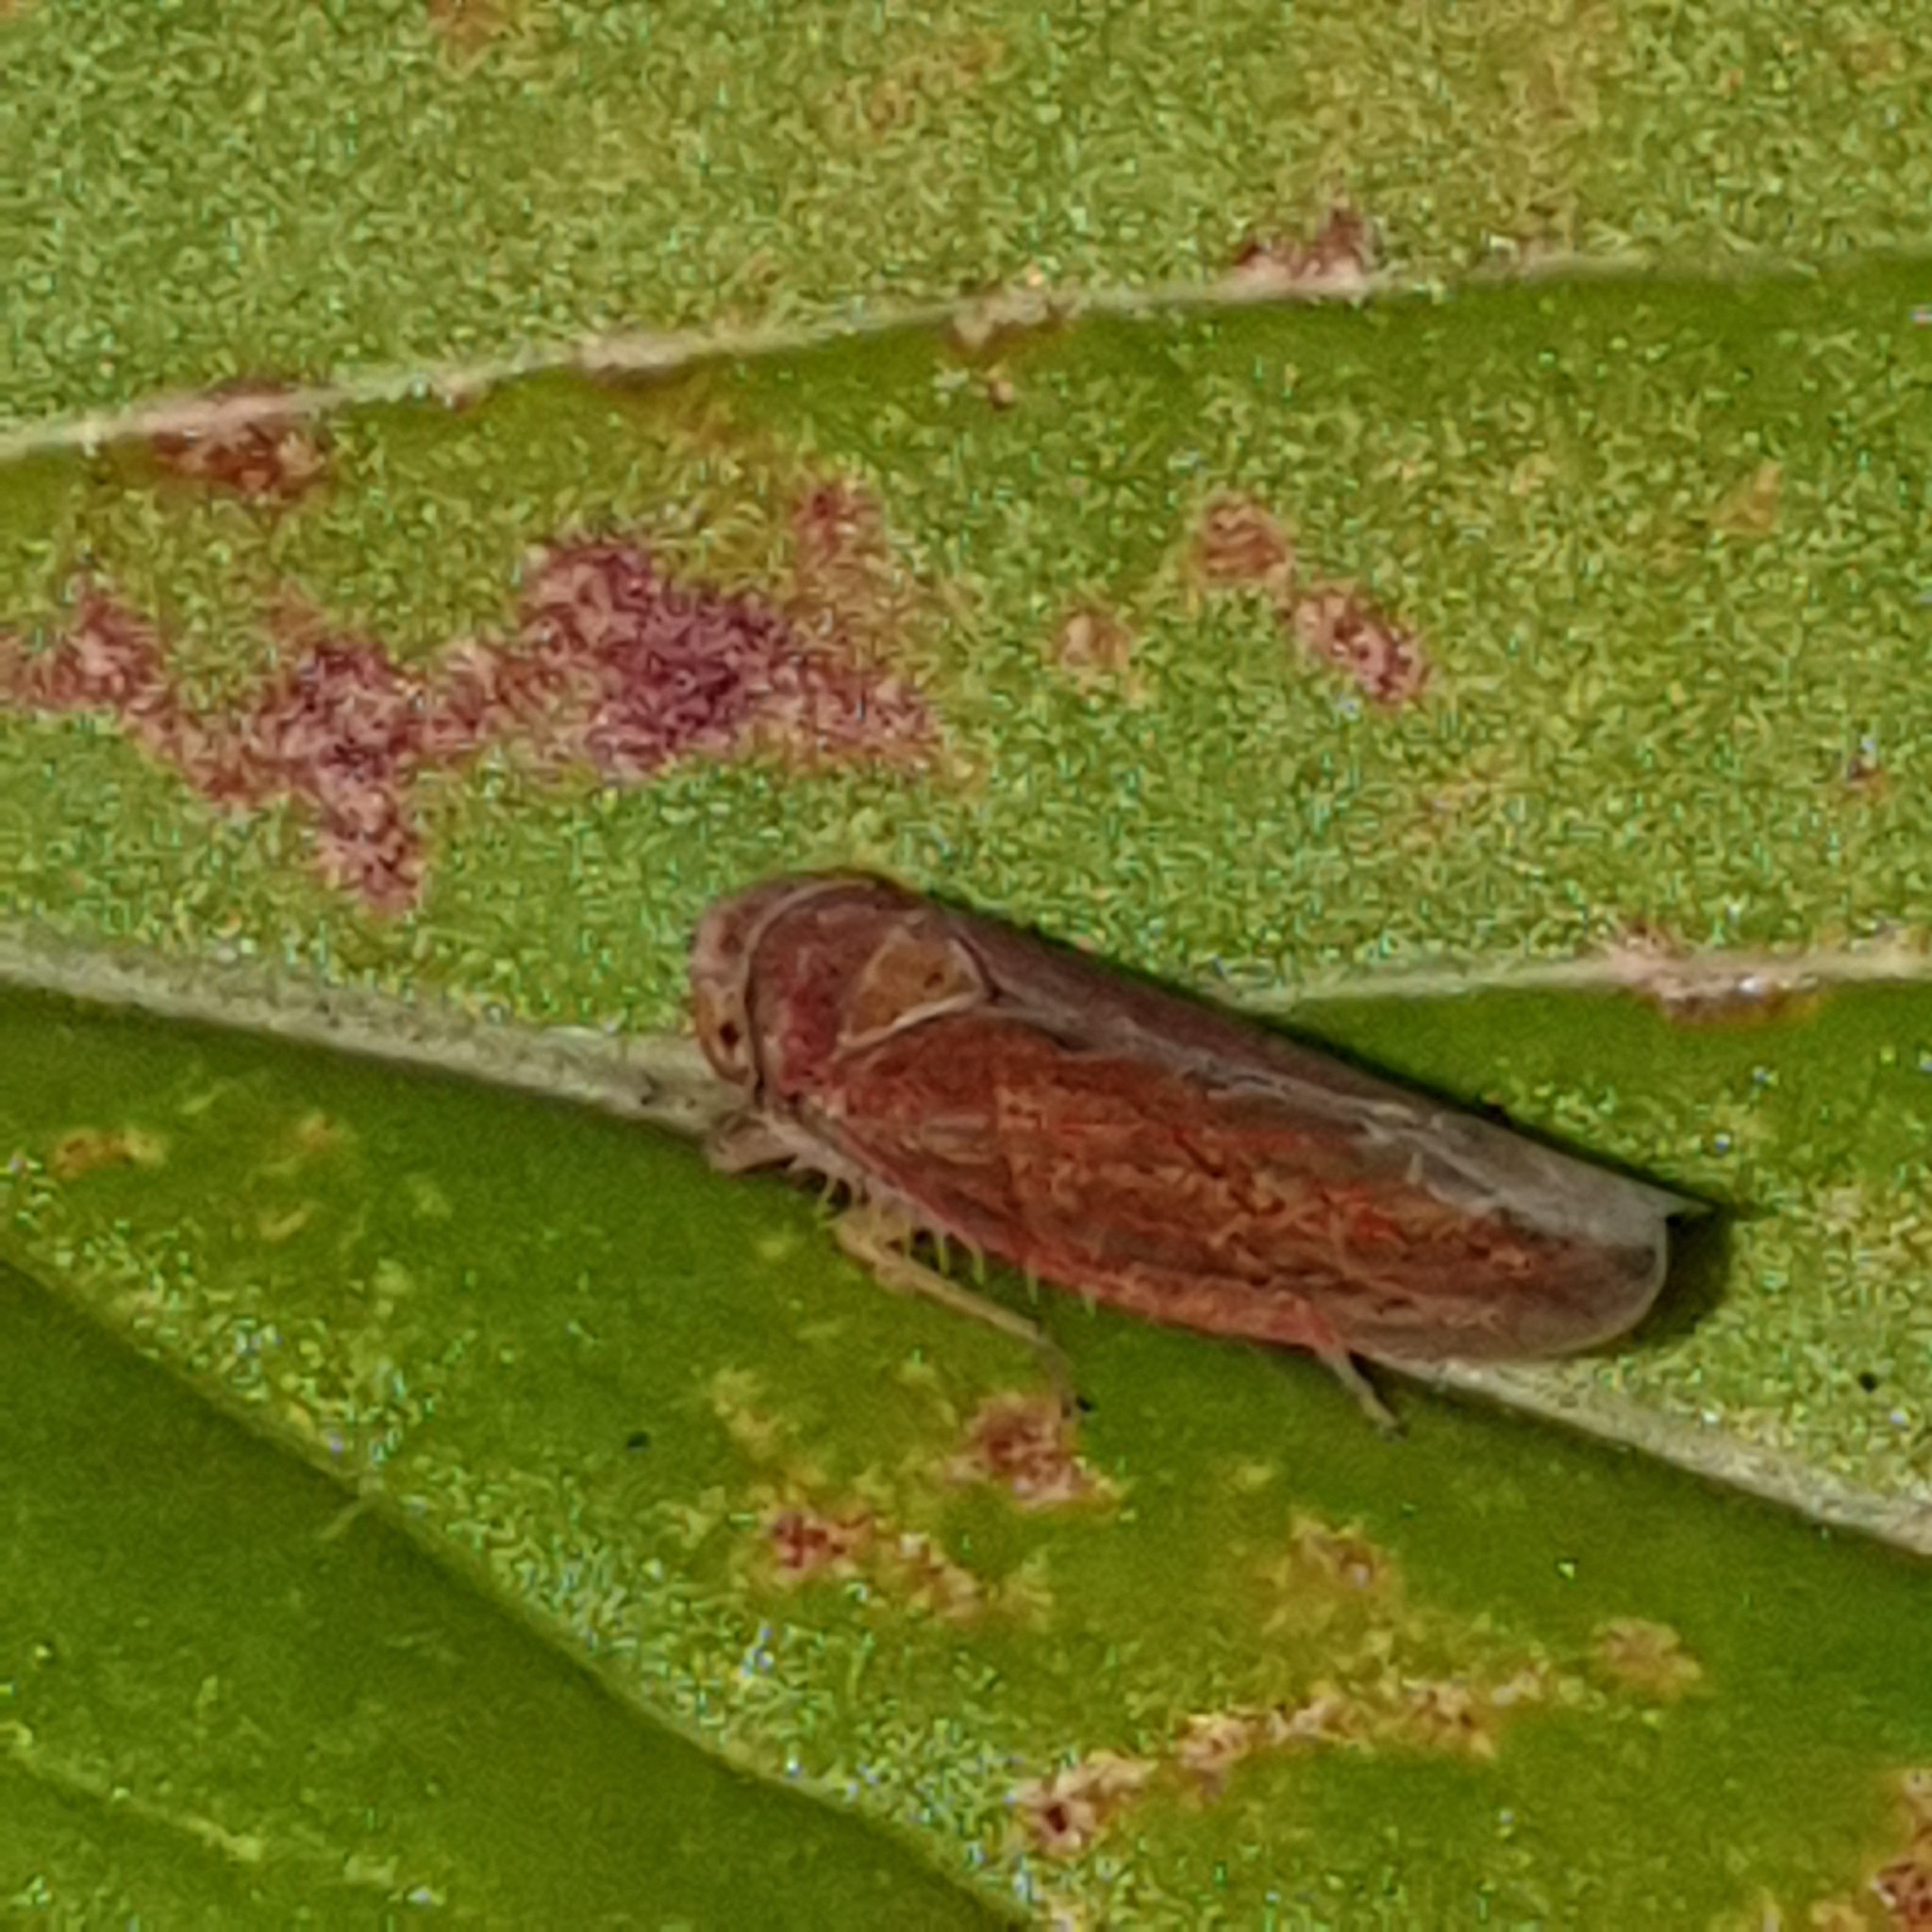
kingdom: Animalia
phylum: Arthropoda
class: Insecta
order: Hemiptera
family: Cicadellidae
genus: Idiodonus
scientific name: Idiodonus cruentatus
